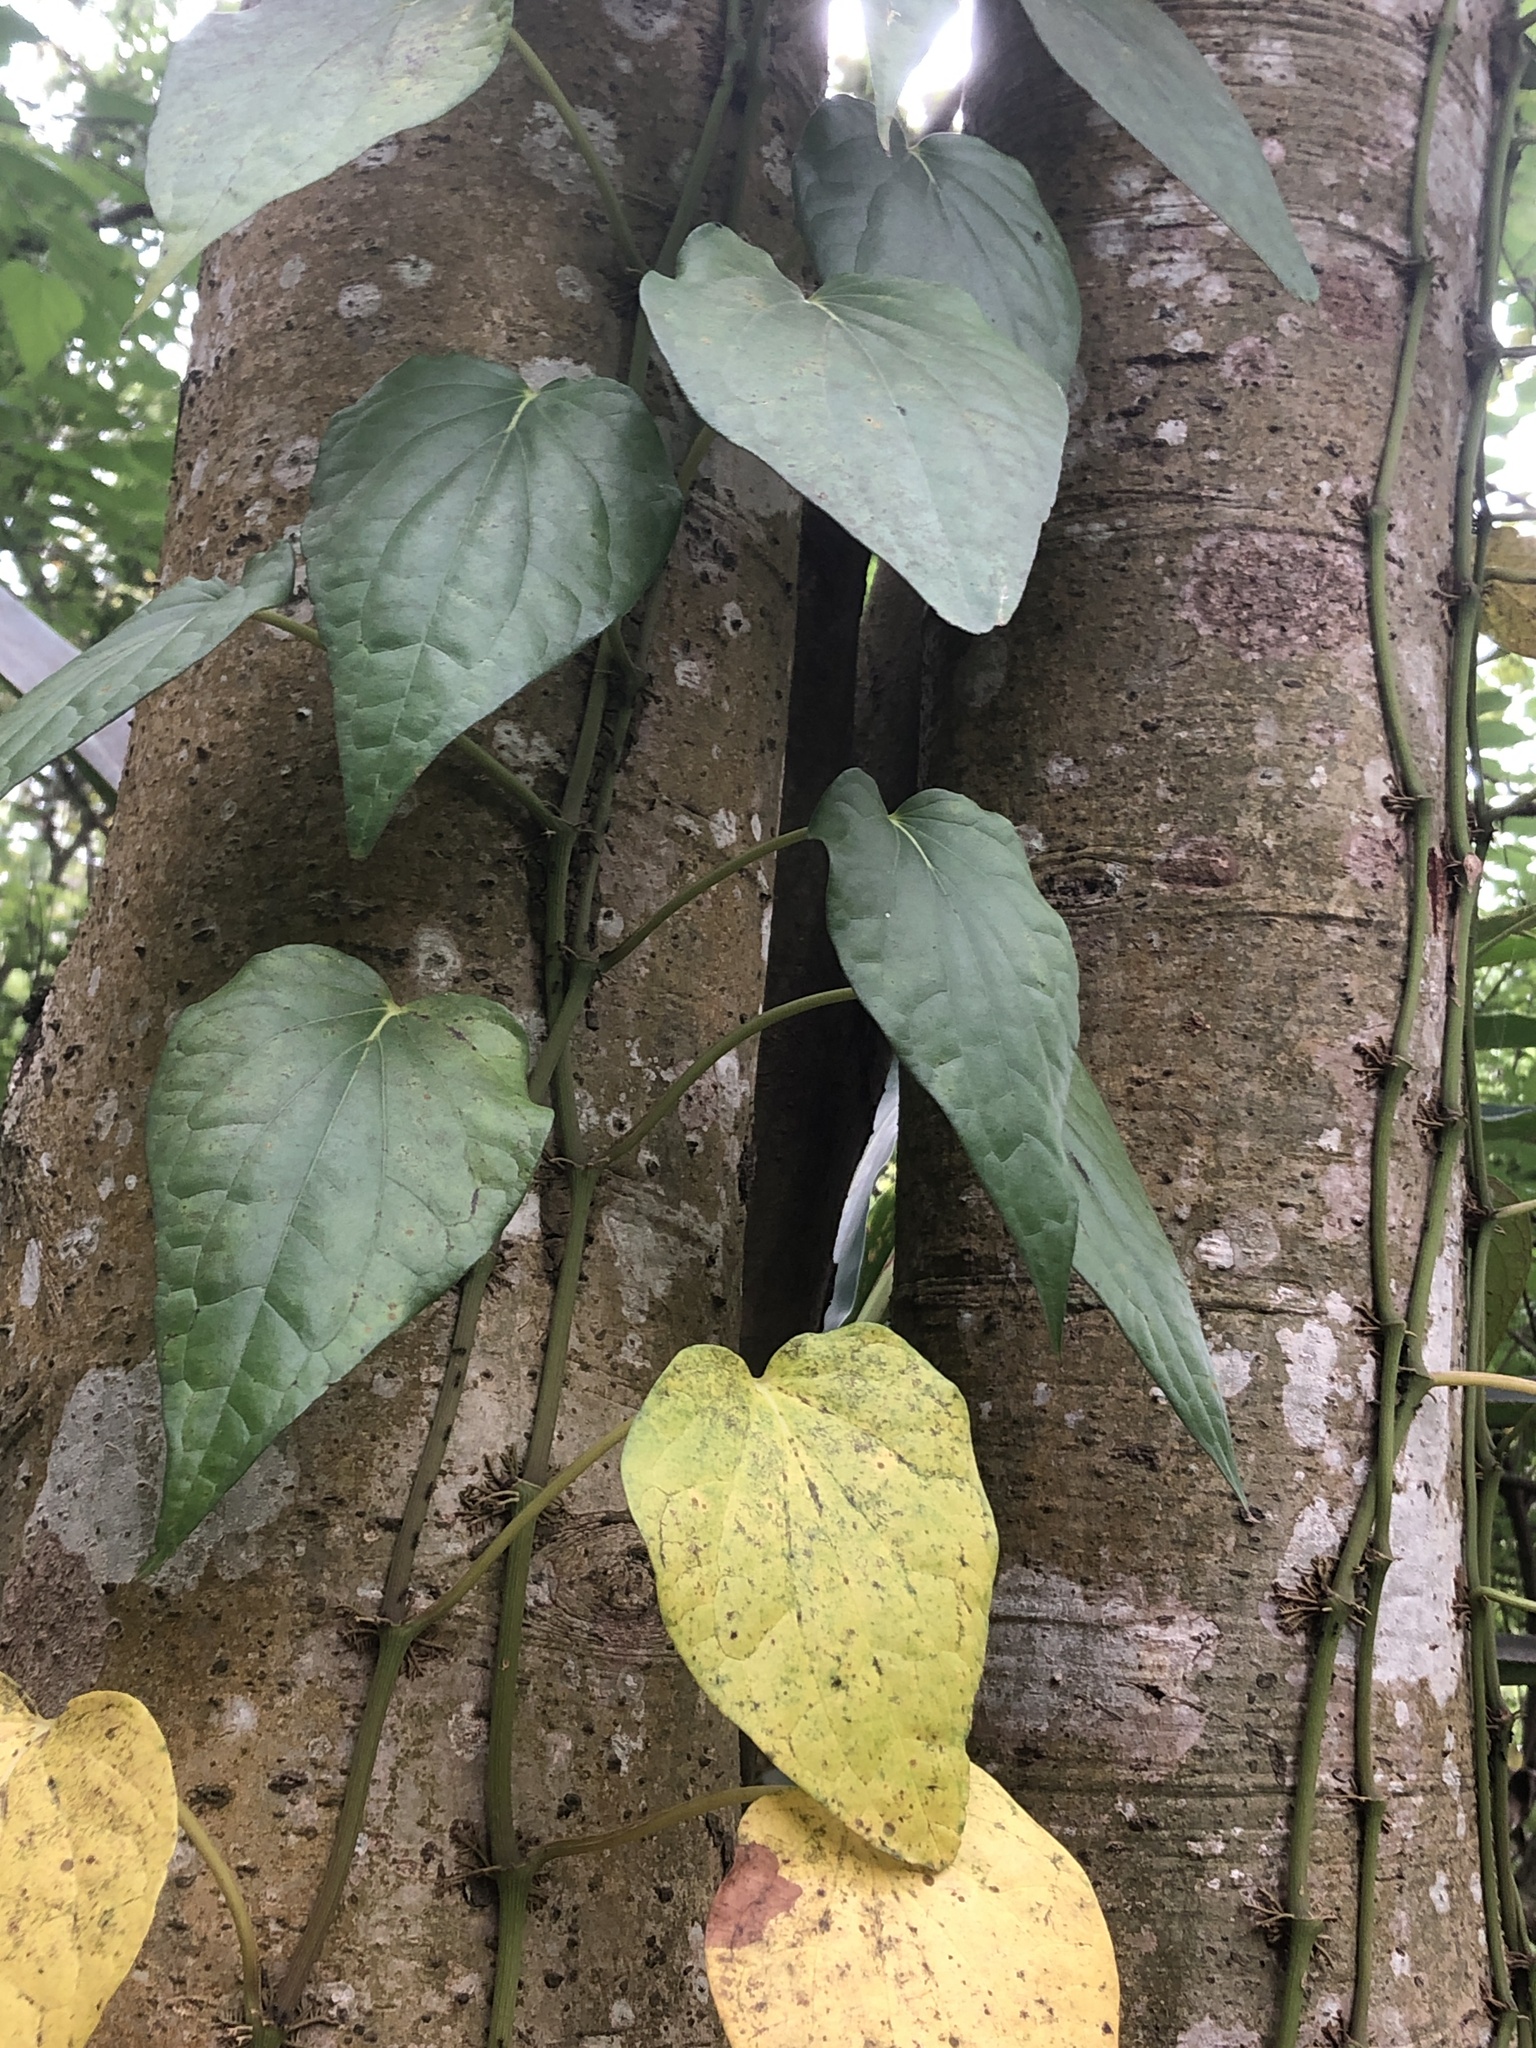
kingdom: Plantae
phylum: Tracheophyta
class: Magnoliopsida
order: Piperales
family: Piperaceae
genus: Piper
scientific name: Piper betle
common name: Betel pepper
